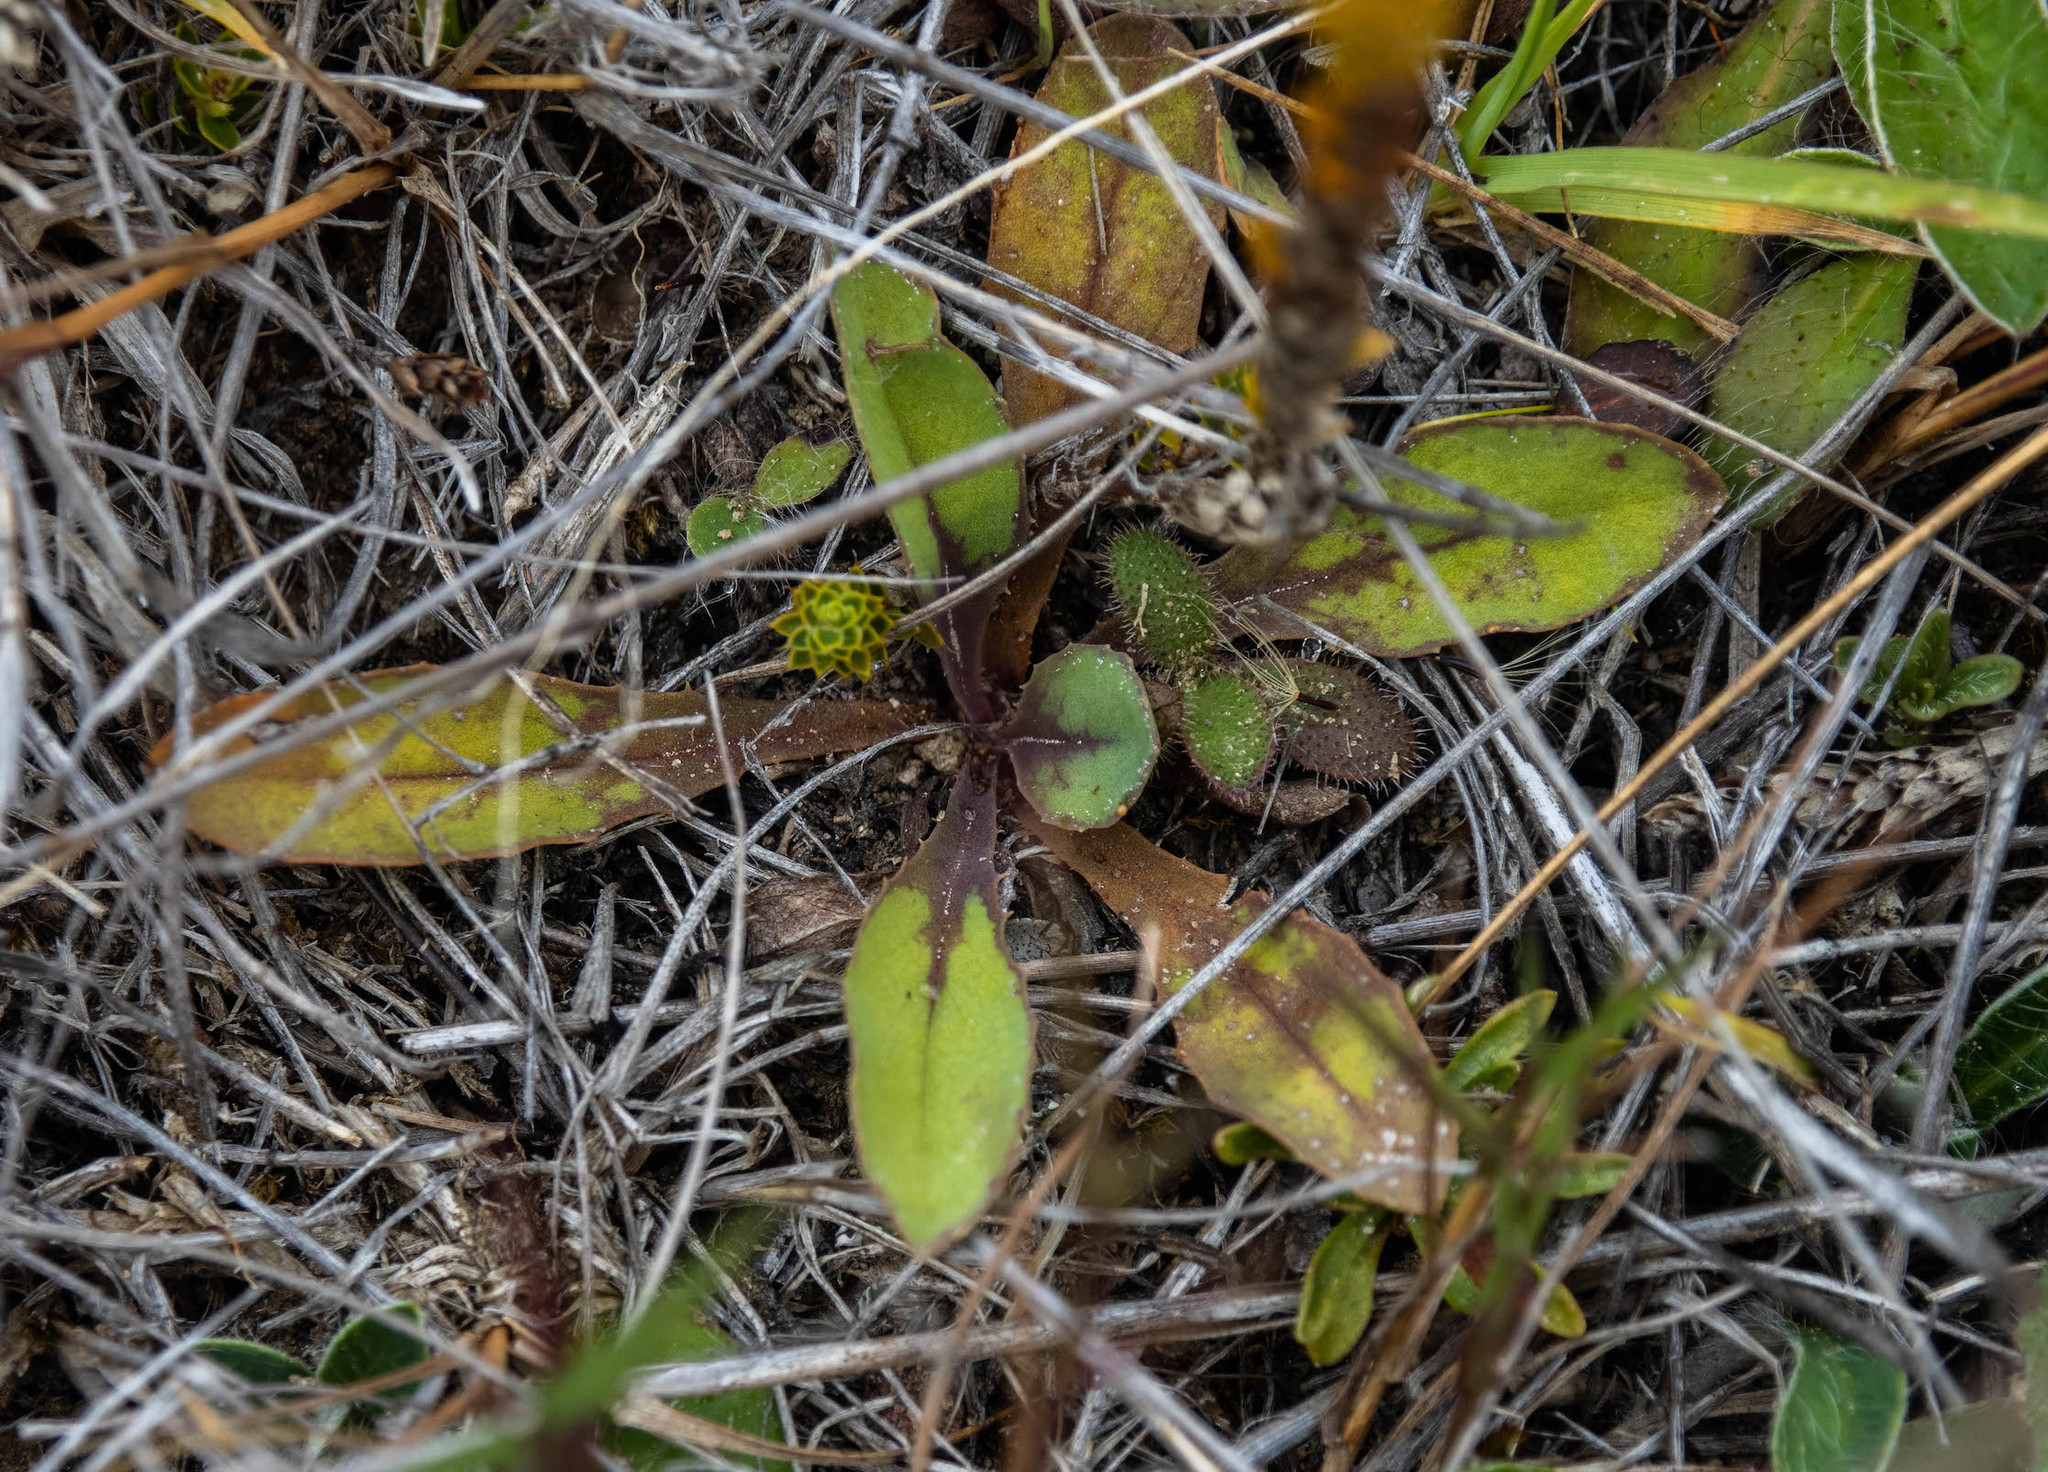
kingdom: Plantae
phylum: Tracheophyta
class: Magnoliopsida
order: Asterales
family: Asteraceae
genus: Sonchus
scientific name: Sonchus novae-zelandiae
